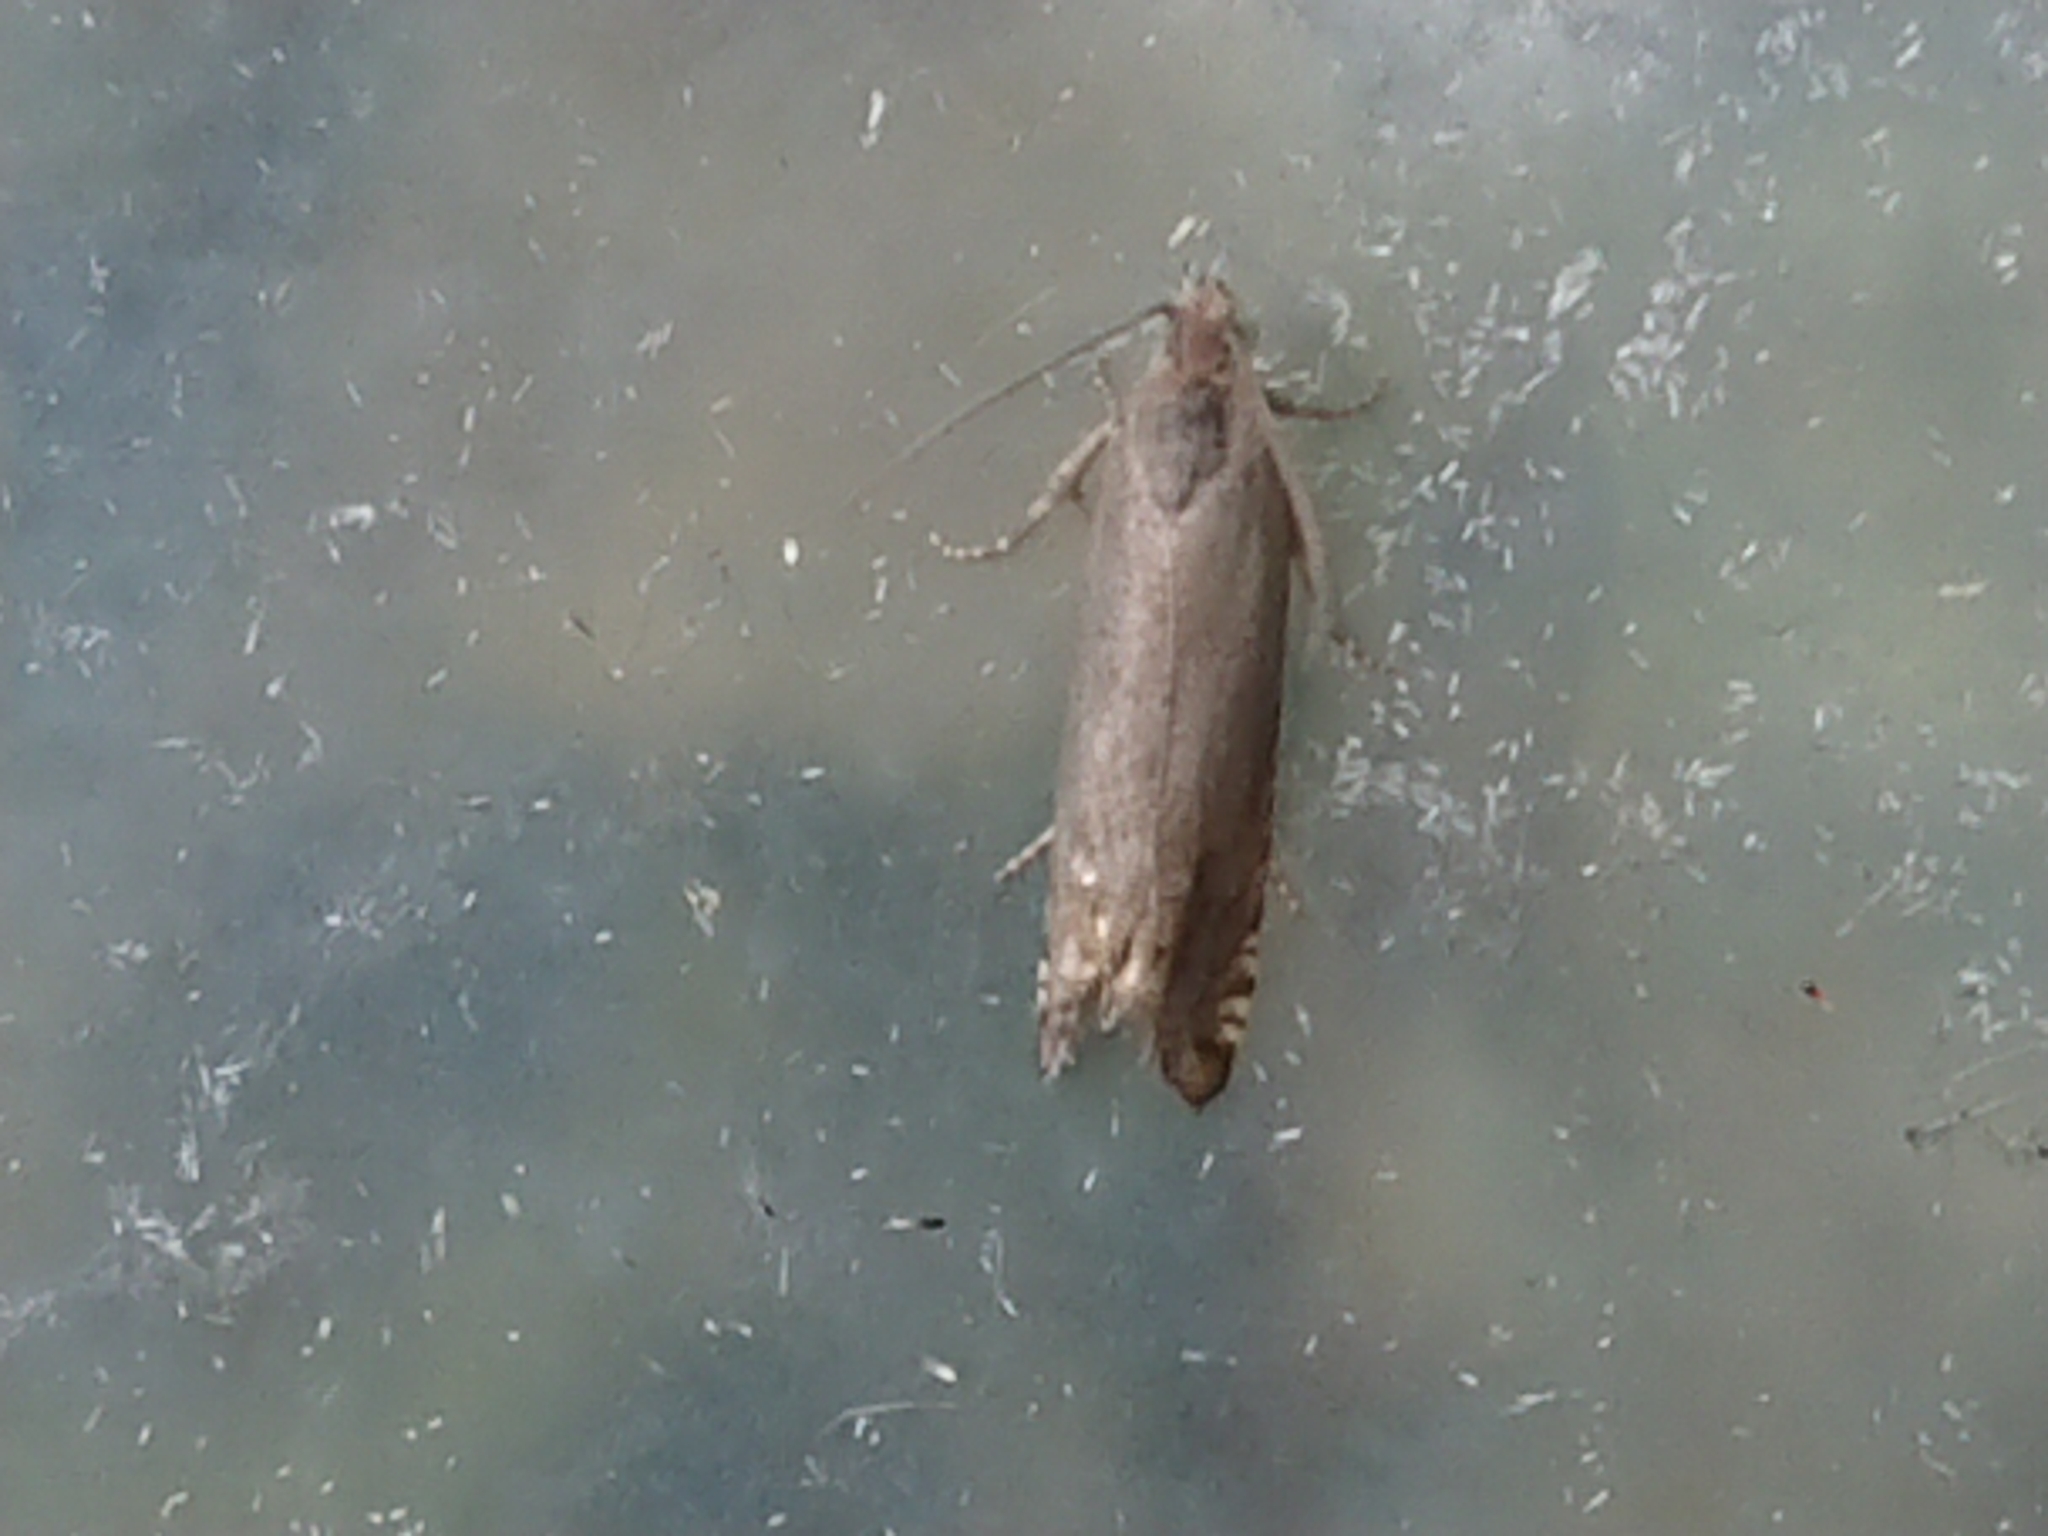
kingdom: Animalia
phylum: Arthropoda
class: Insecta
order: Lepidoptera
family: Tortricidae
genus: Cydia
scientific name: Cydia succedana
